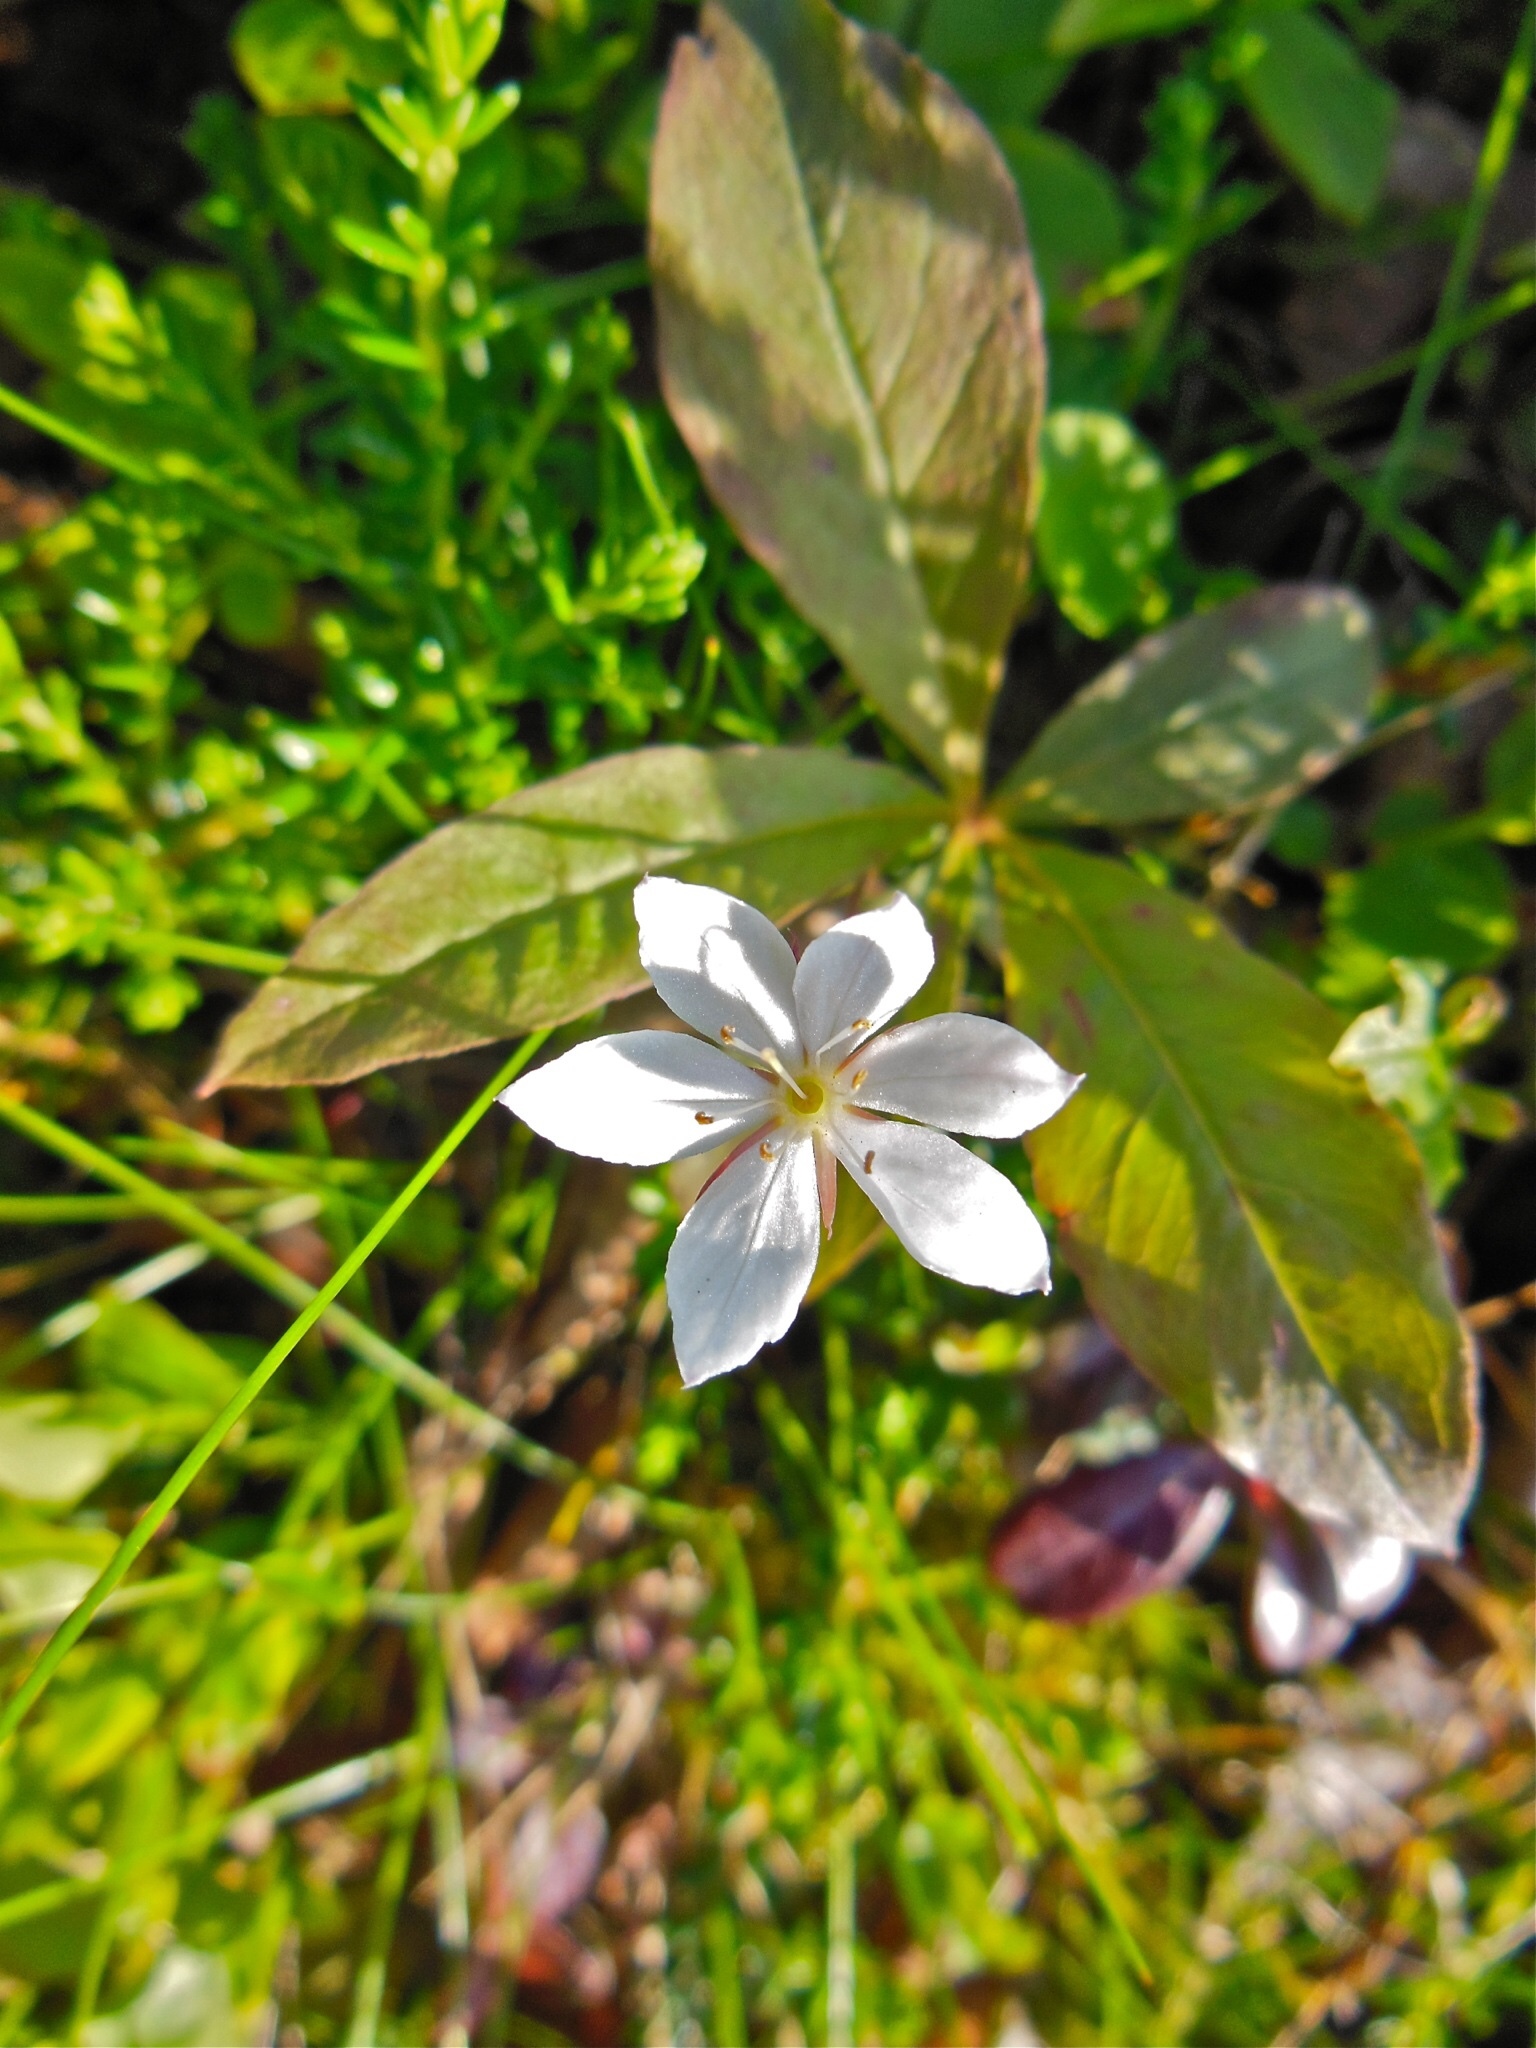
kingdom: Plantae
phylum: Tracheophyta
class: Magnoliopsida
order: Ericales
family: Primulaceae
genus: Lysimachia
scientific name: Lysimachia europaea
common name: Arctic starflower
